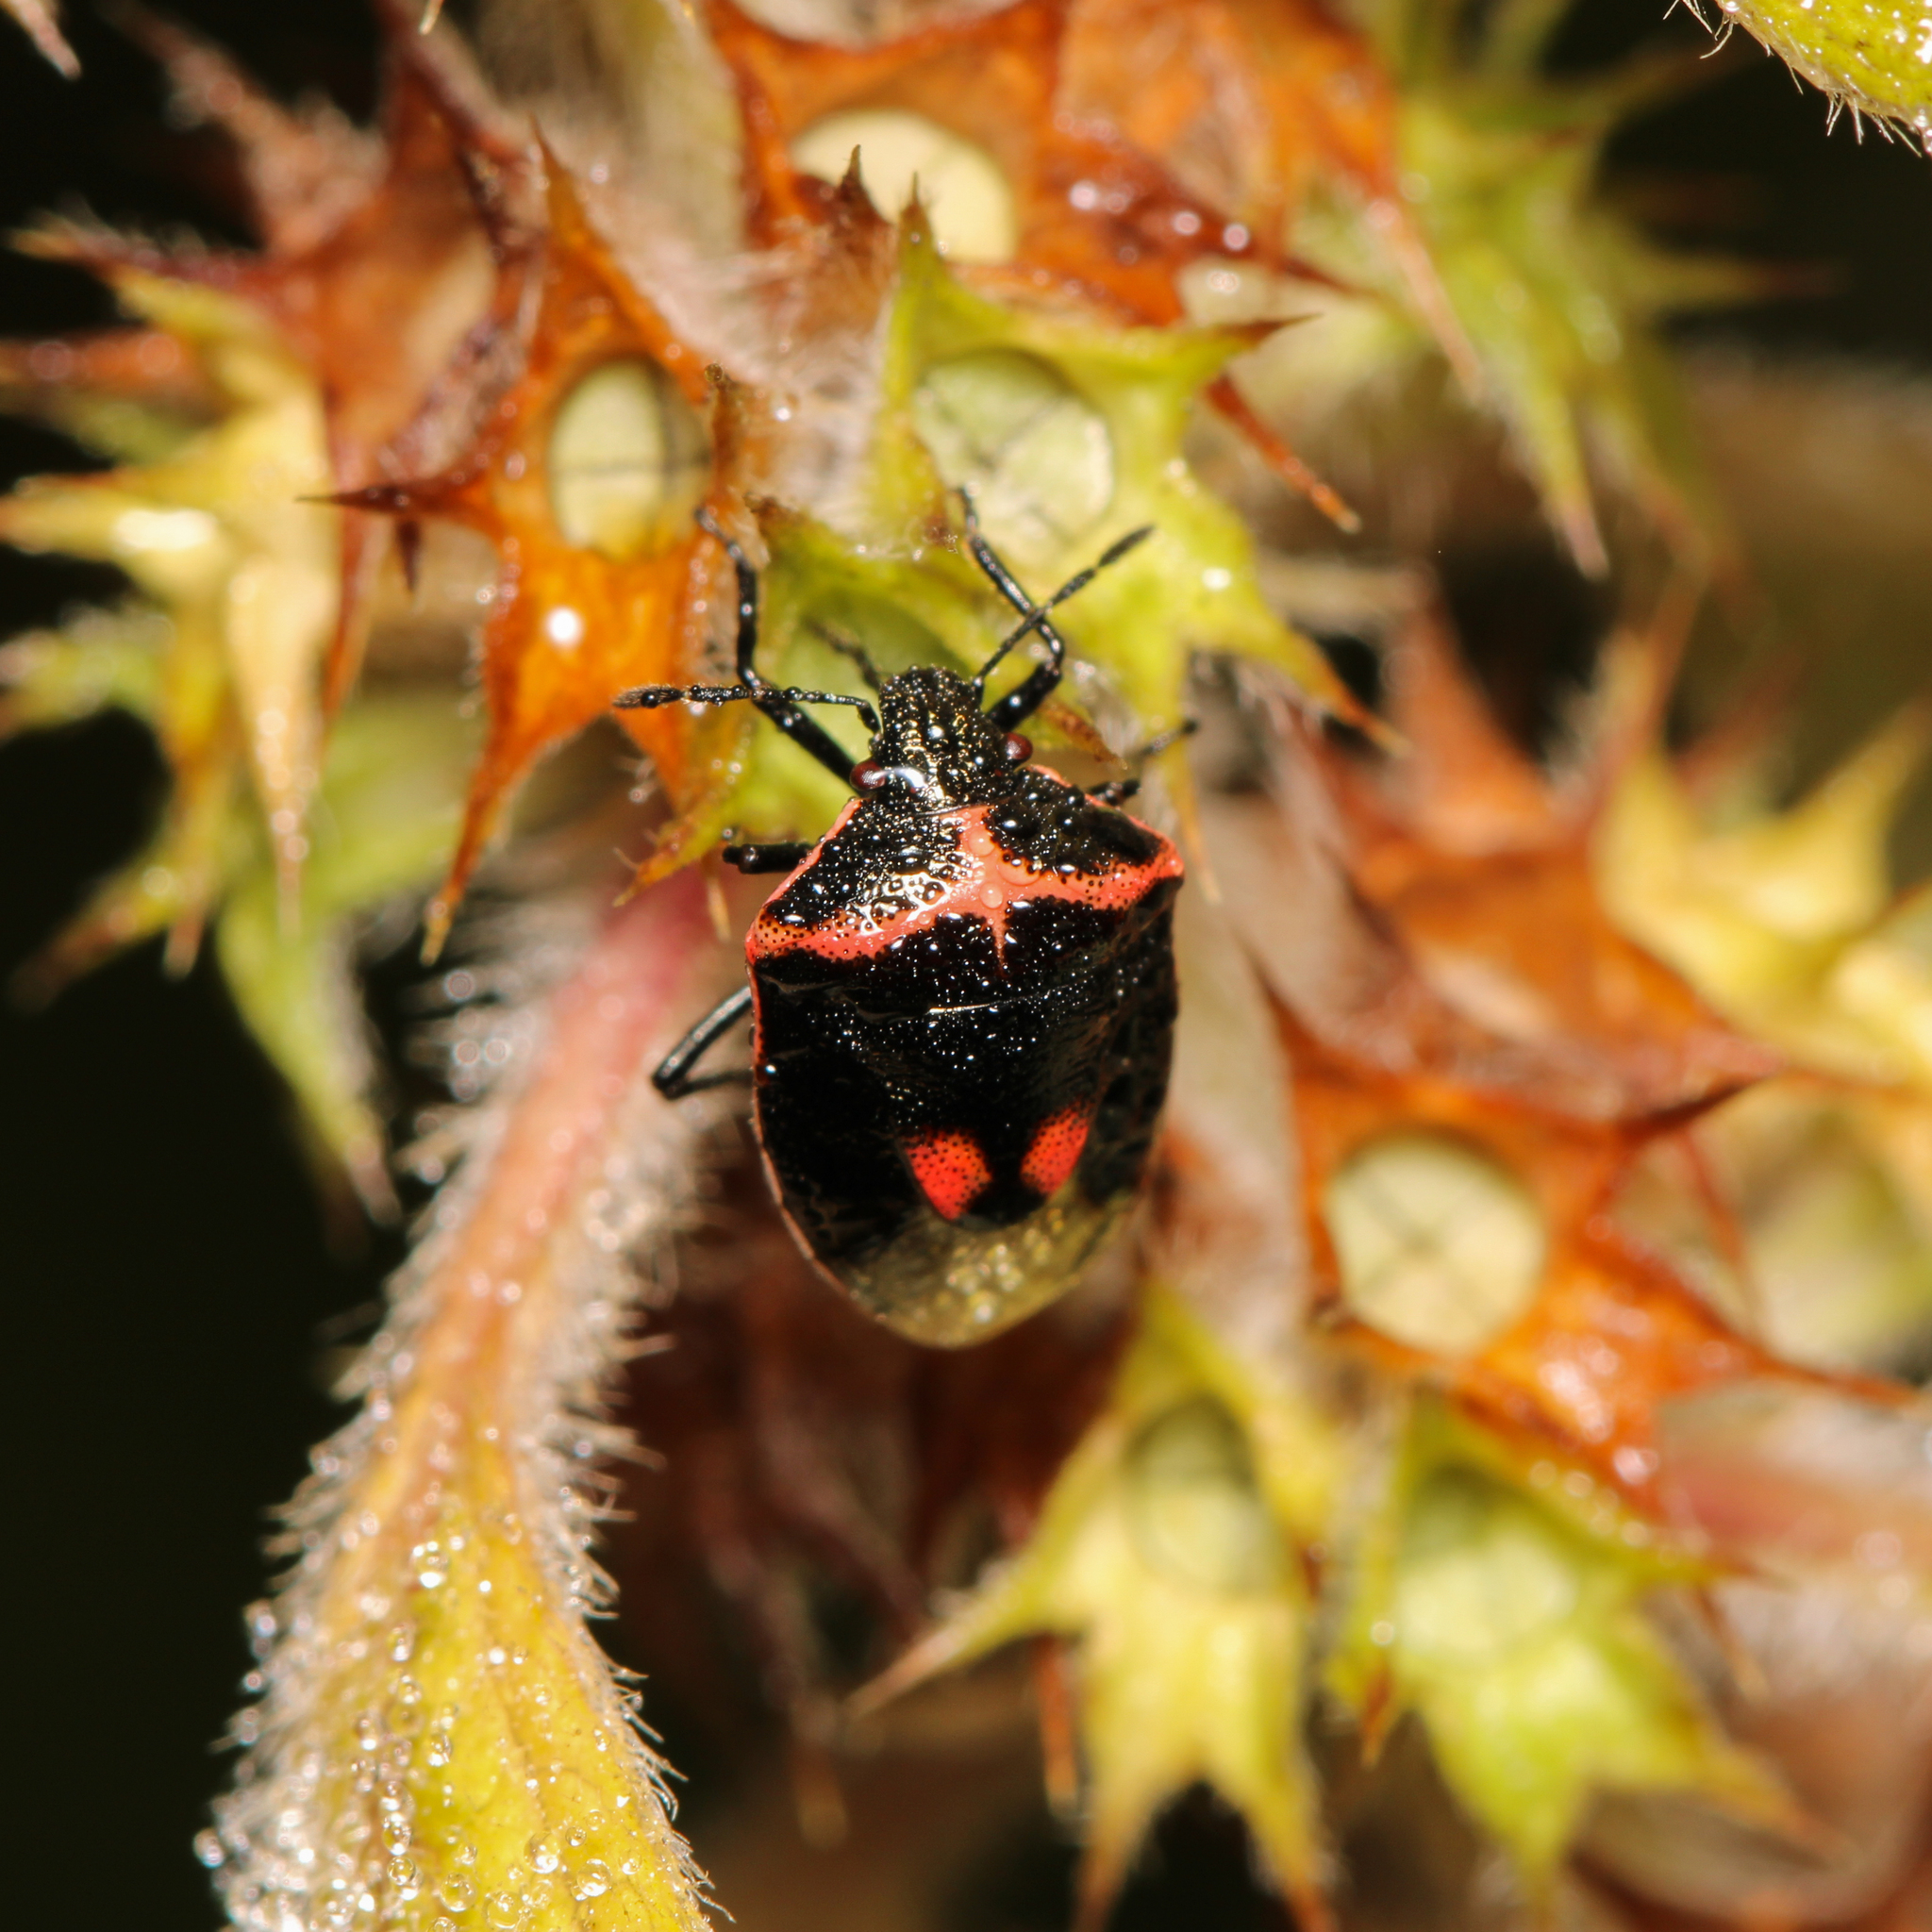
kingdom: Animalia
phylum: Arthropoda
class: Insecta
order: Hemiptera
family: Pentatomidae
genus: Cosmopepla
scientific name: Cosmopepla lintneriana
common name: Twice-stabbed stink bug
